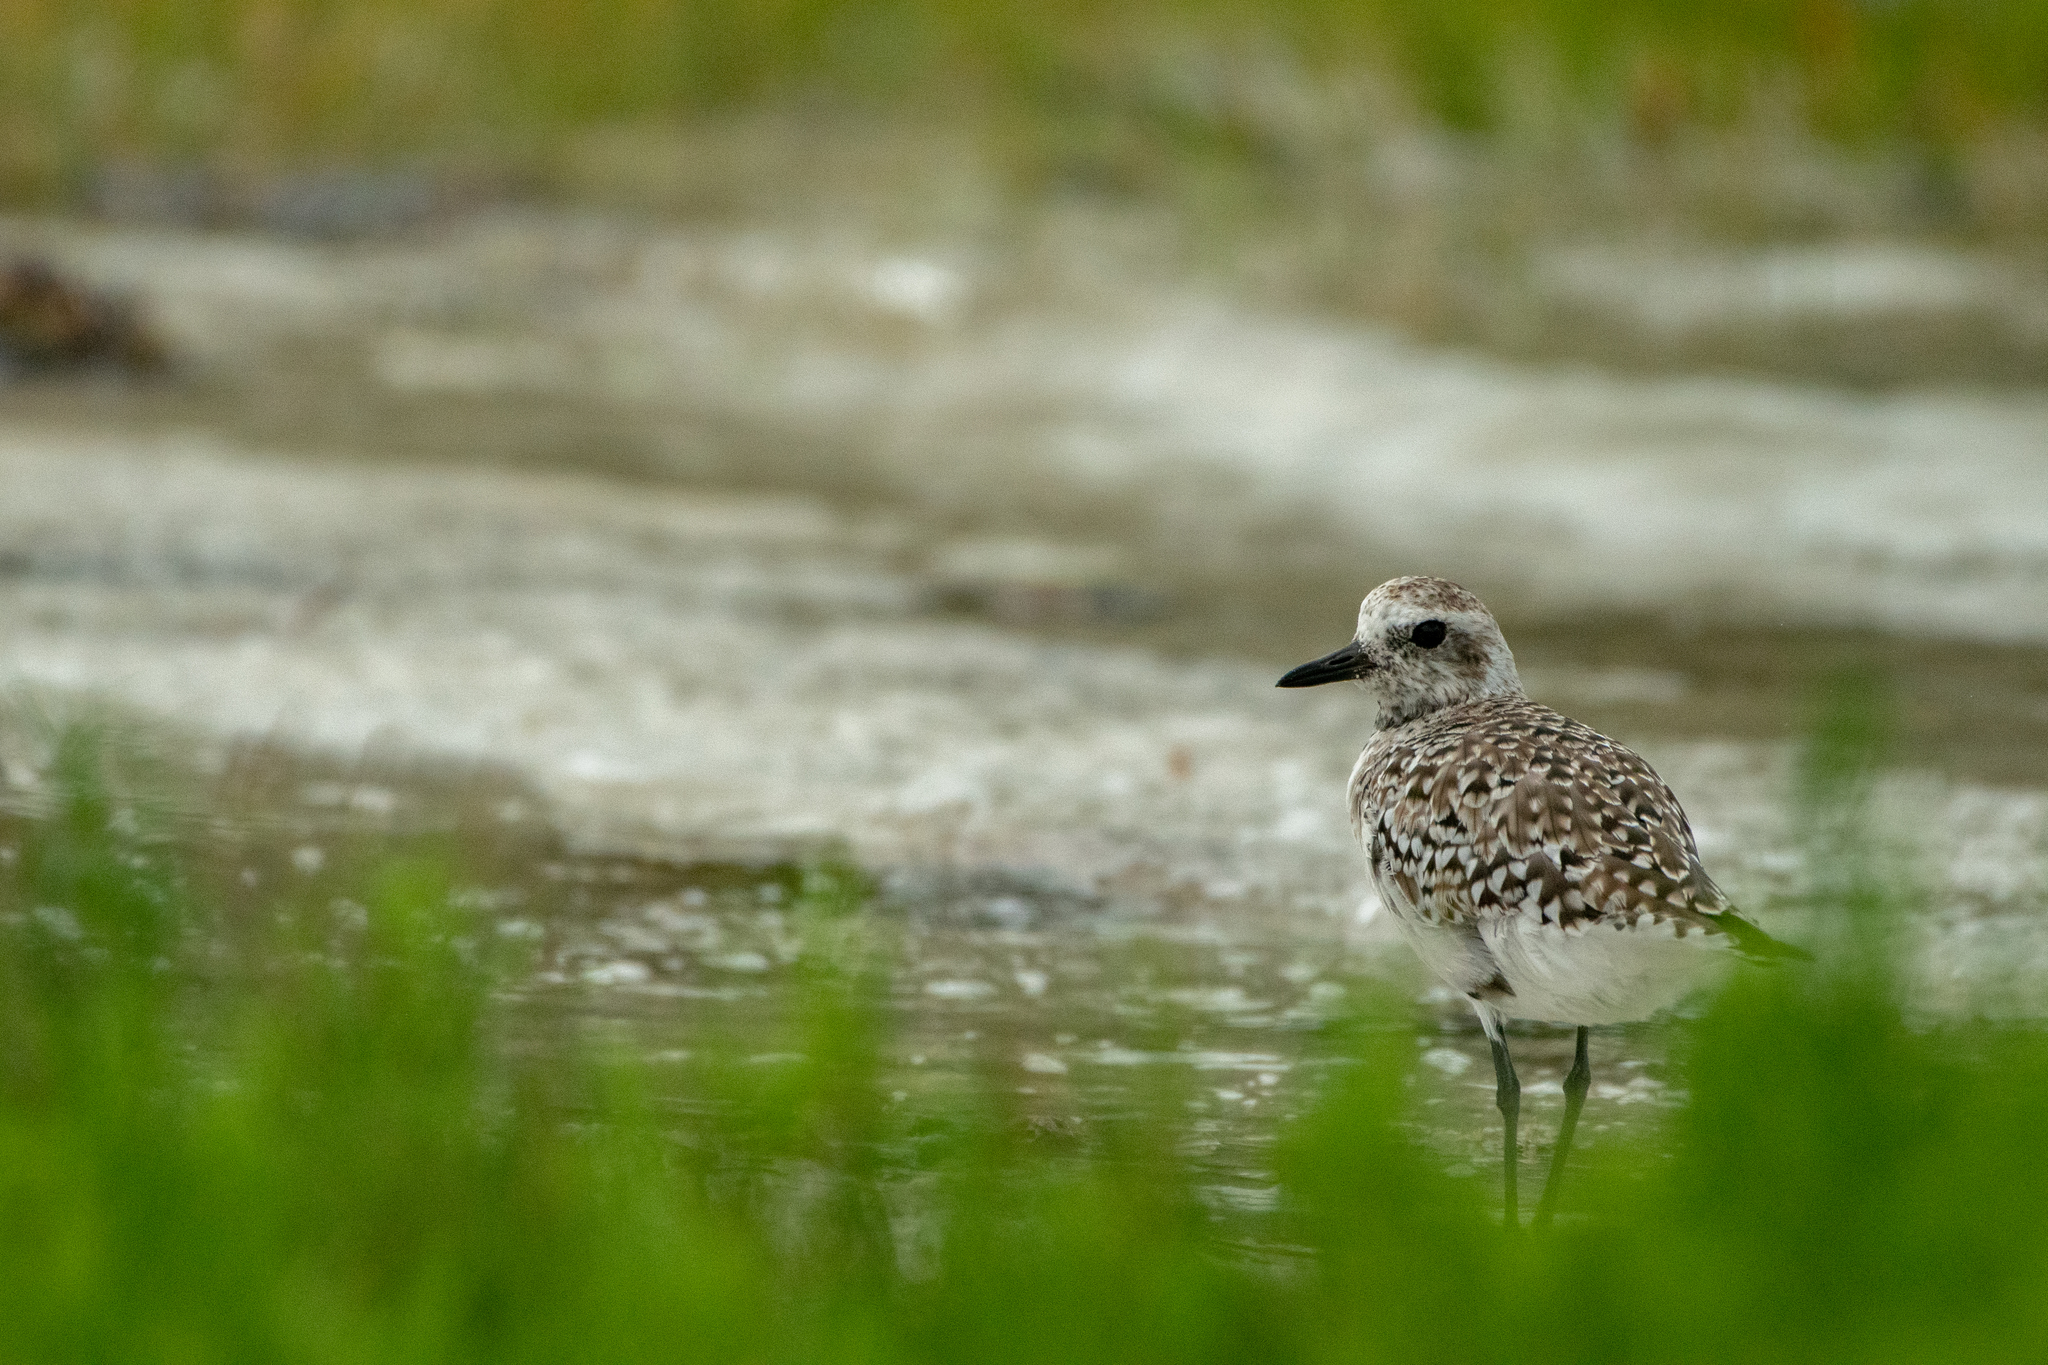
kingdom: Animalia
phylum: Chordata
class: Aves
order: Charadriiformes
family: Charadriidae
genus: Pluvialis
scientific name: Pluvialis squatarola
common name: Grey plover
